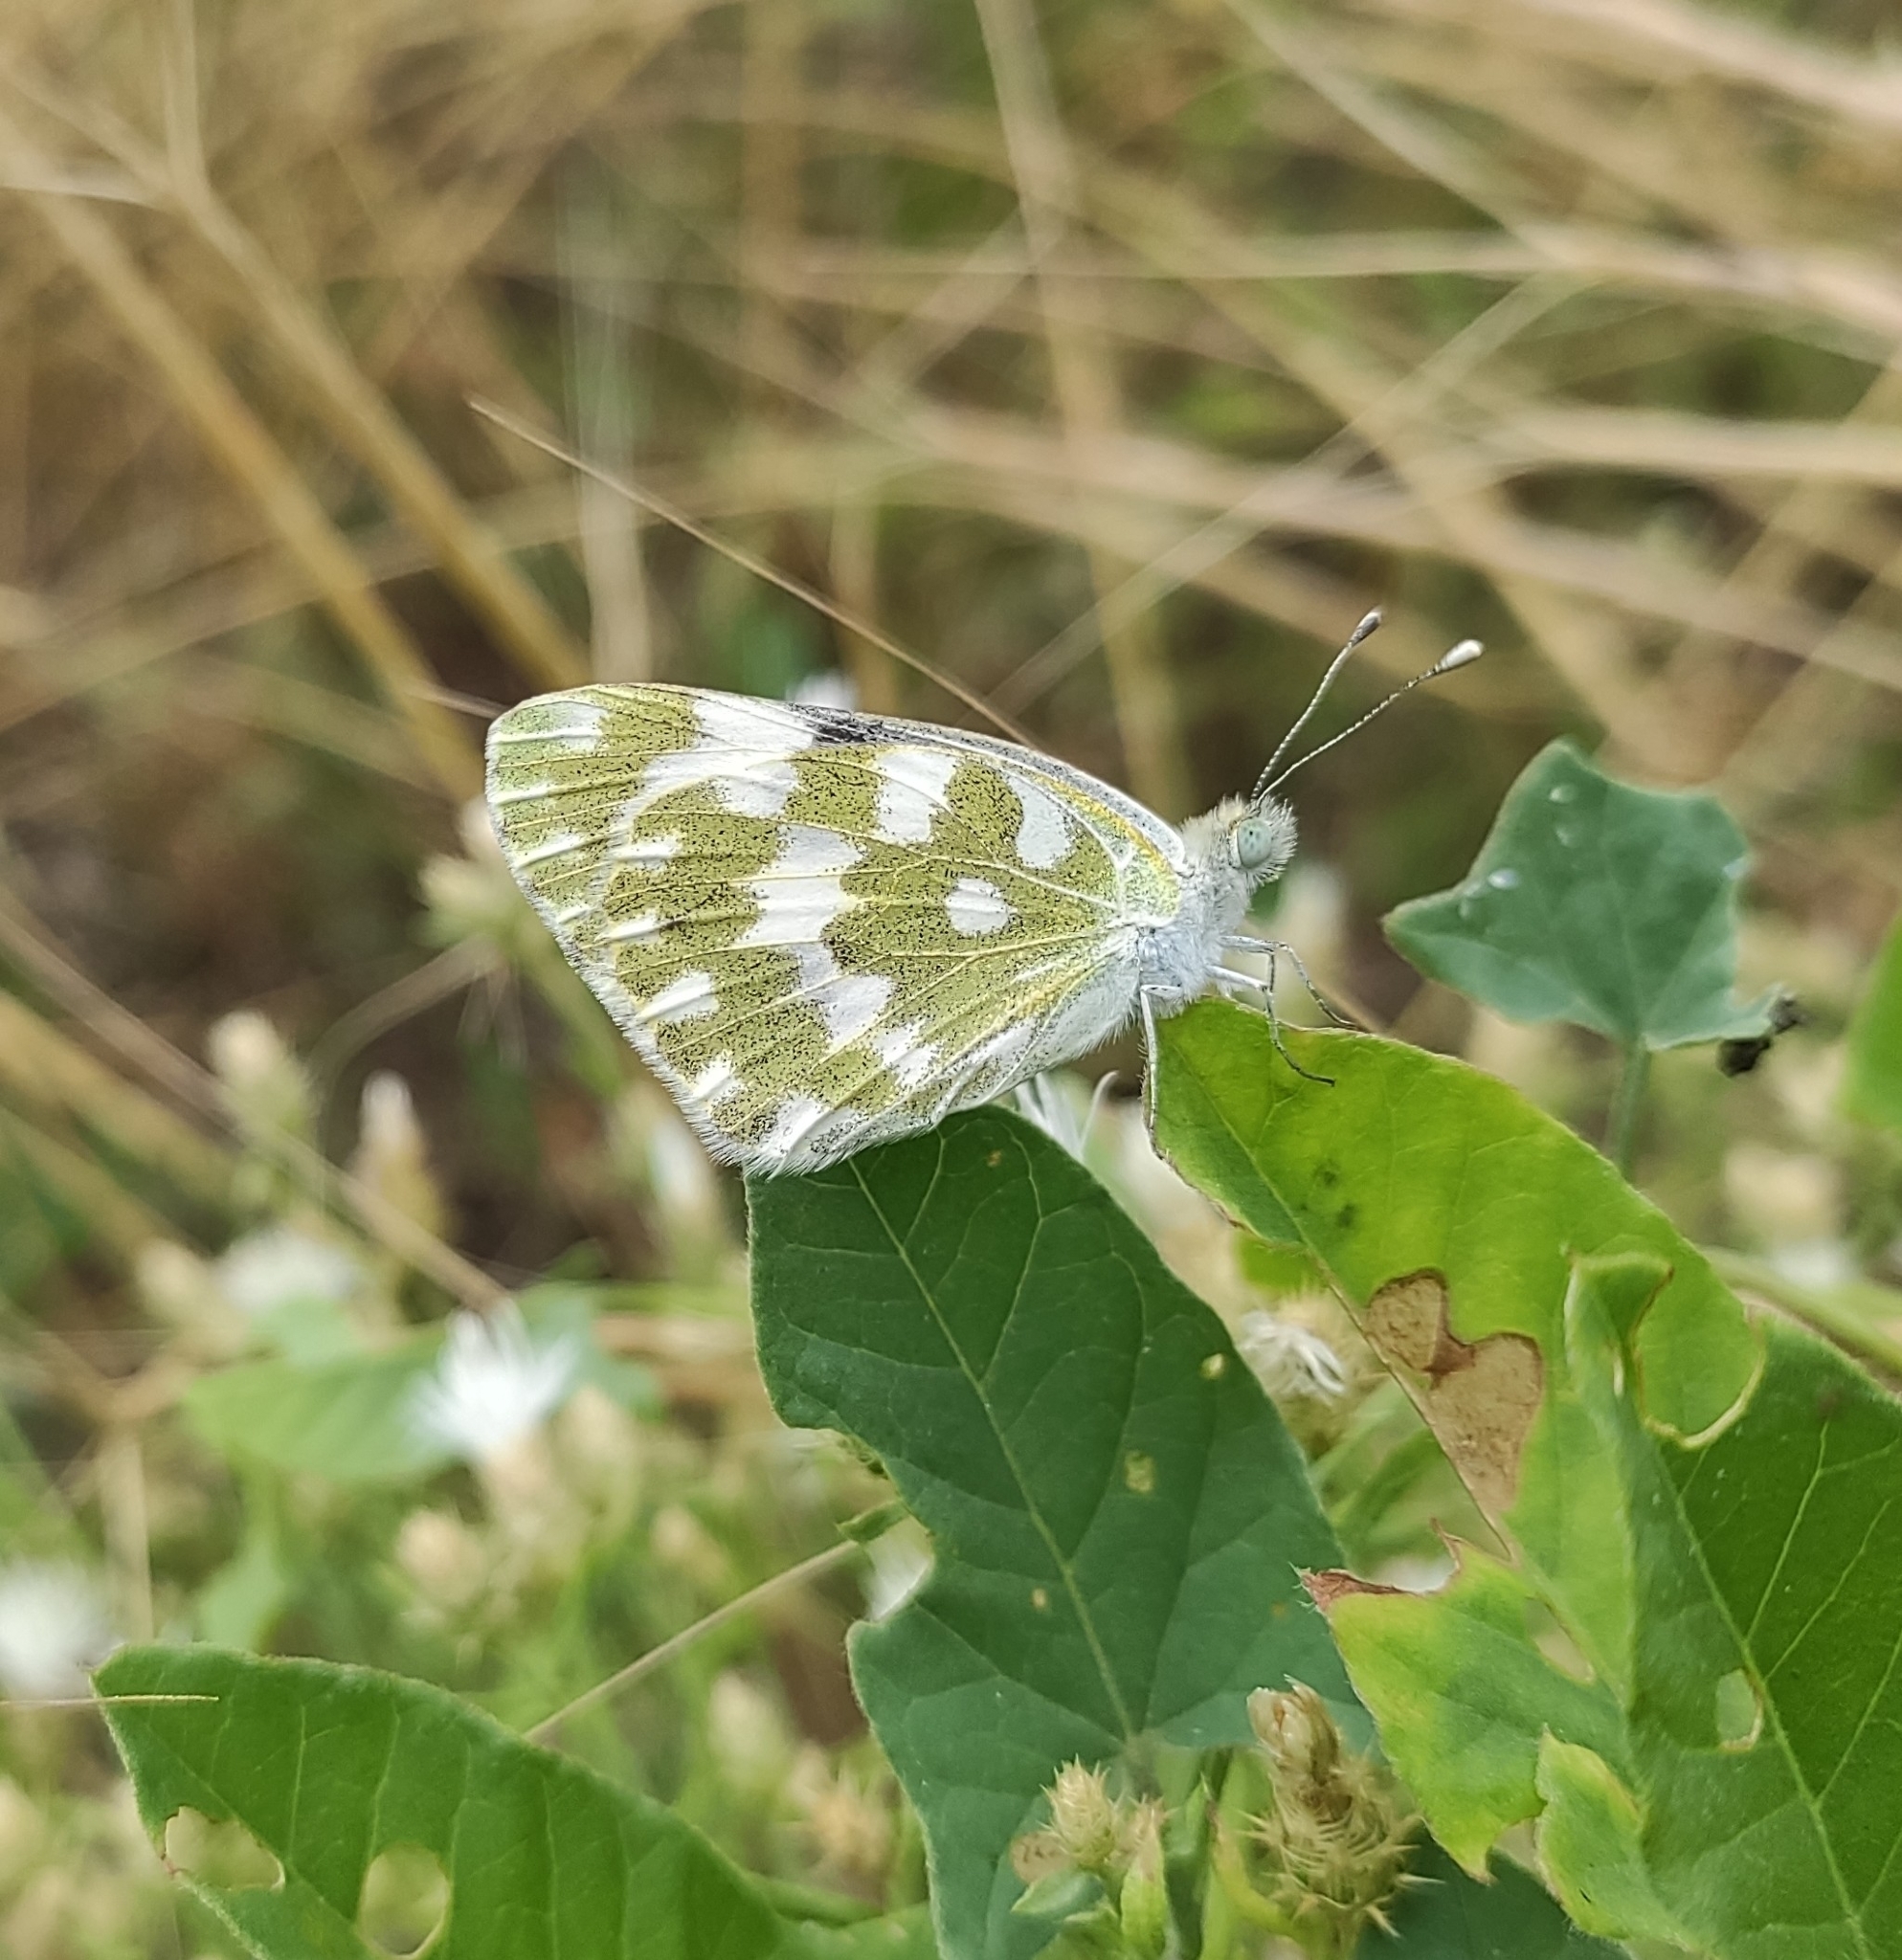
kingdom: Animalia
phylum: Arthropoda
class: Insecta
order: Lepidoptera
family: Pieridae
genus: Pontia
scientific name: Pontia edusa
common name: Eastern bath white
